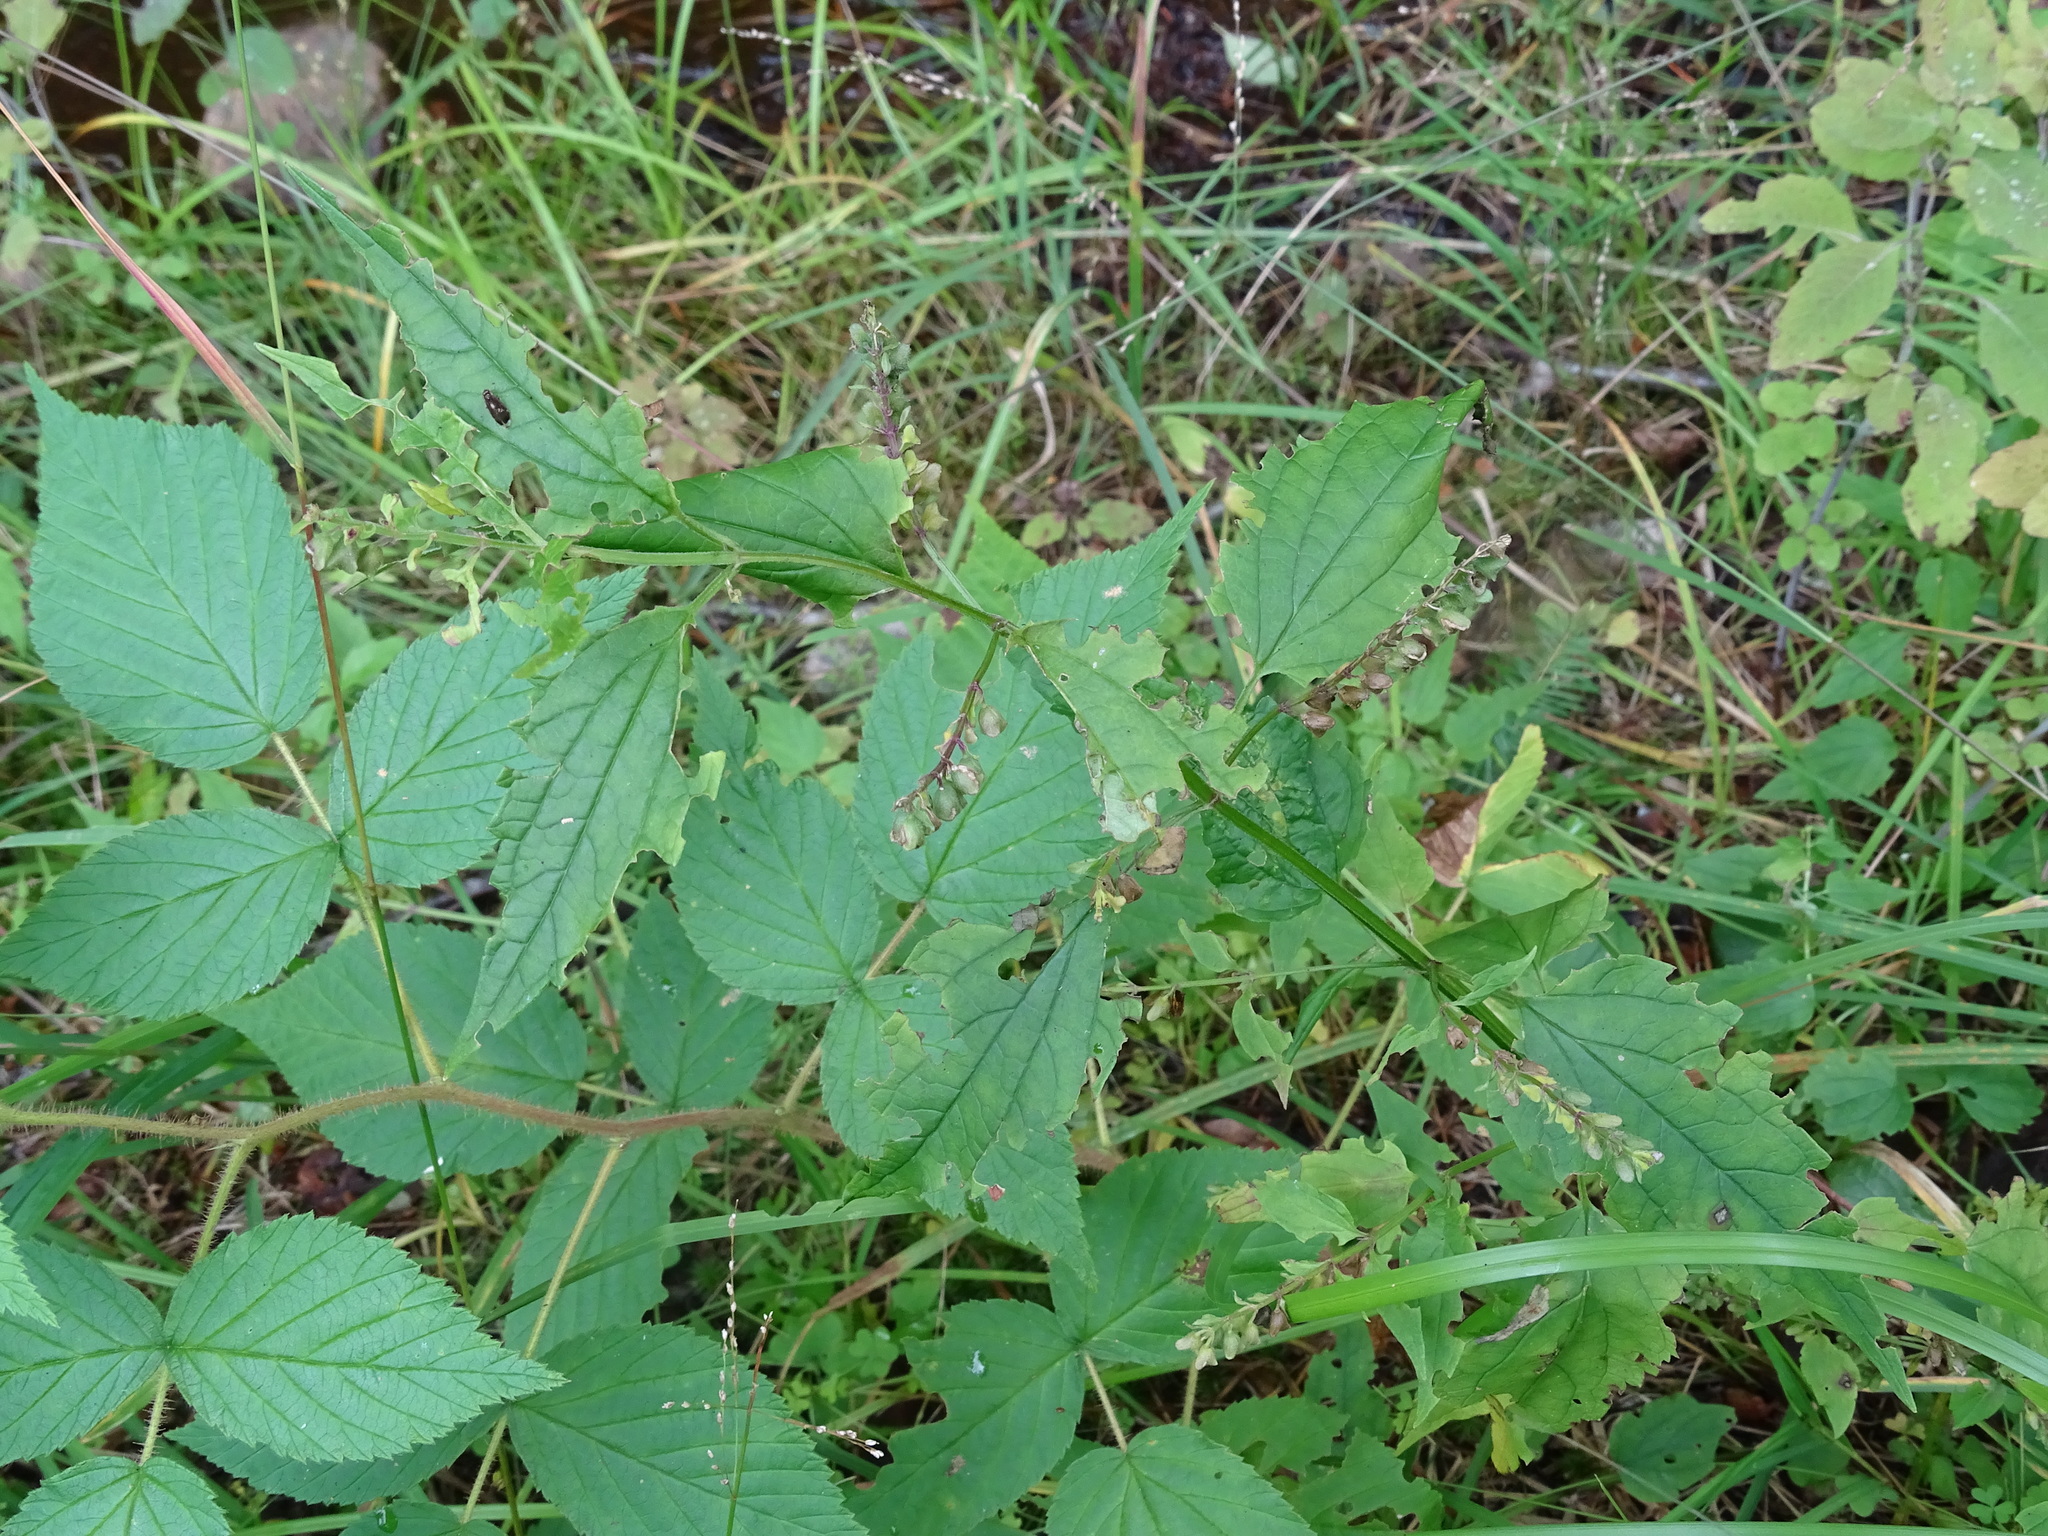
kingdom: Plantae
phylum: Tracheophyta
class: Magnoliopsida
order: Lamiales
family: Lamiaceae
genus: Scutellaria
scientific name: Scutellaria lateriflora
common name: Blue skullcap
